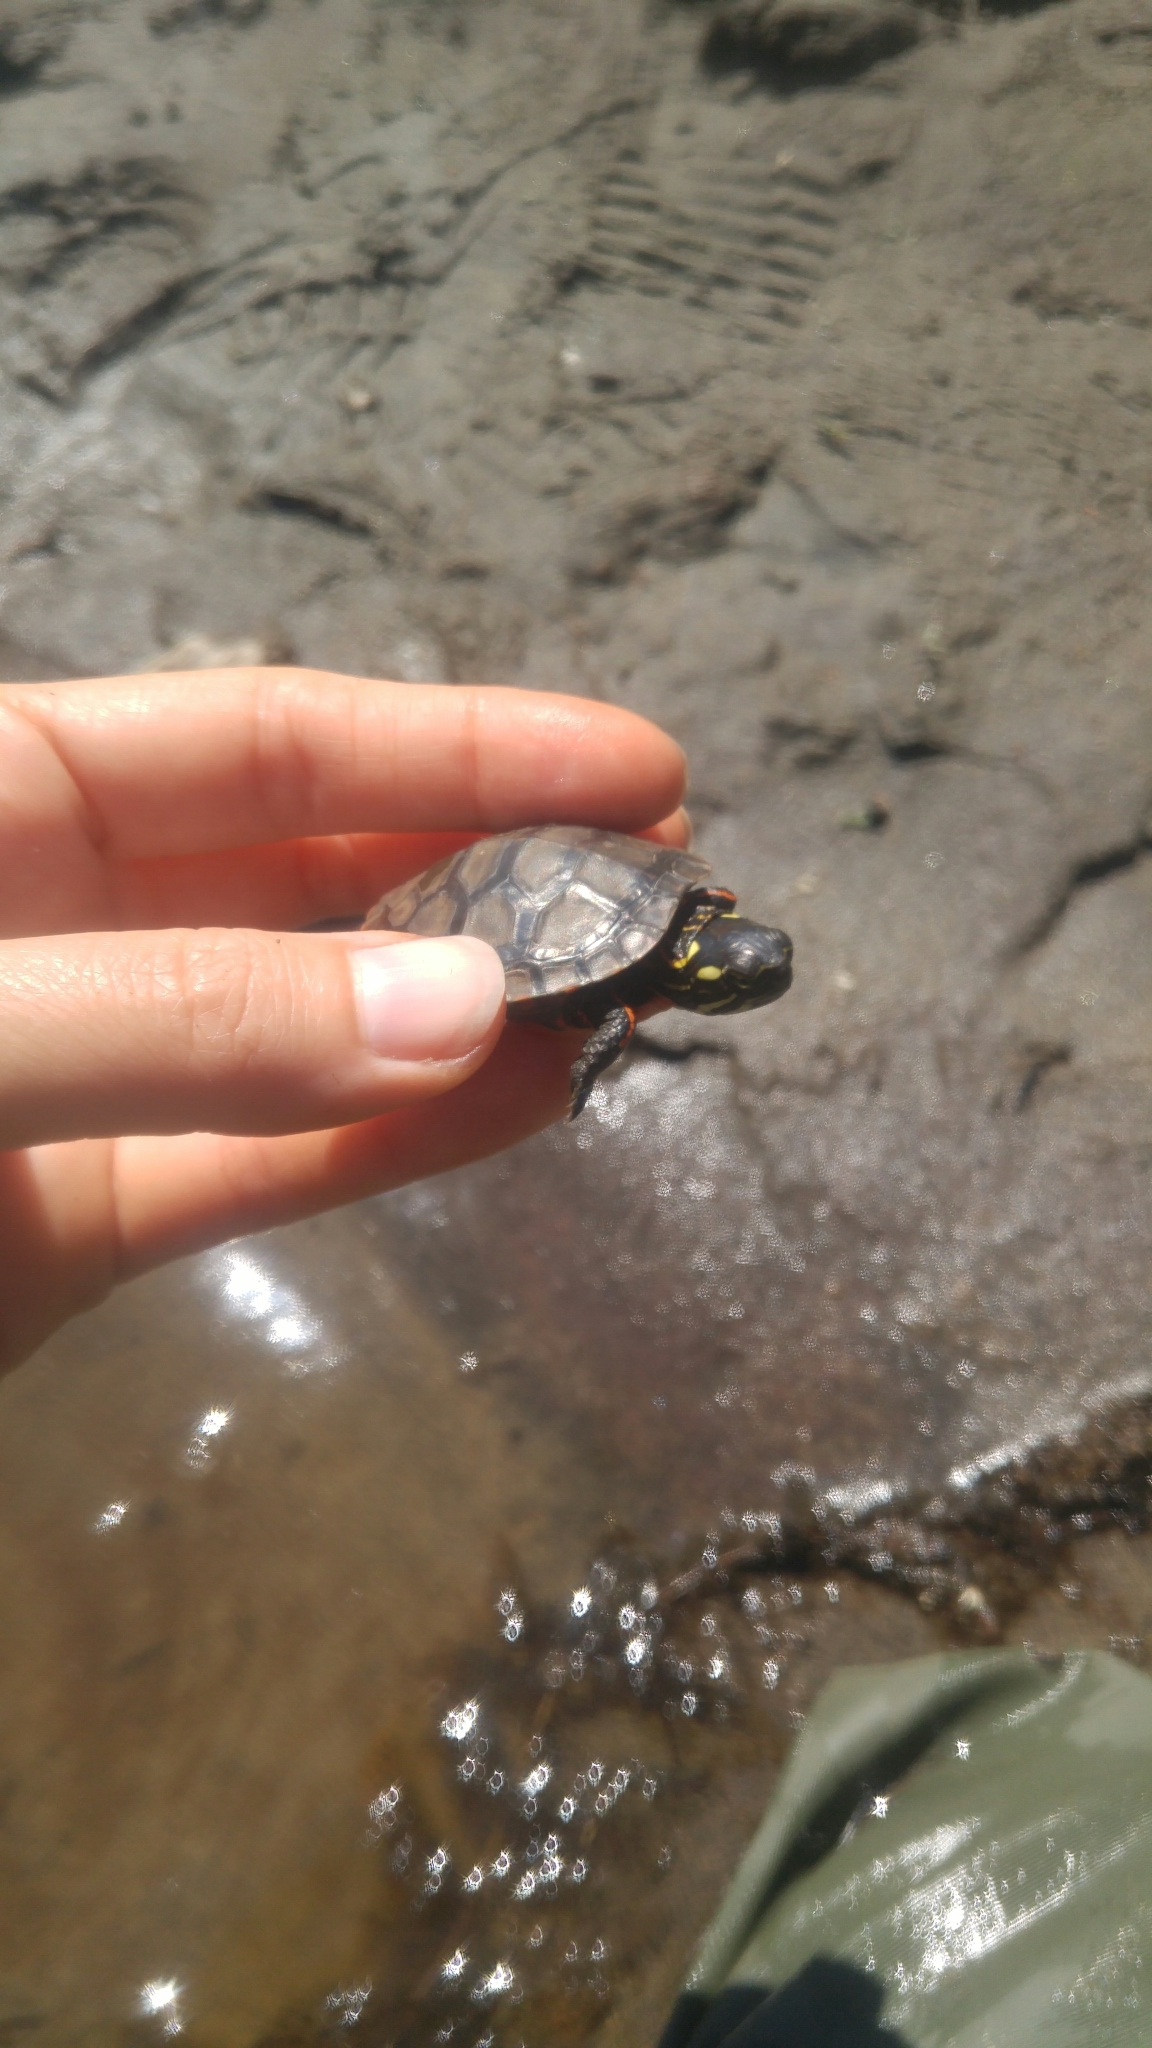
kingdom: Animalia
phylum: Chordata
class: Testudines
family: Emydidae
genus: Chrysemys
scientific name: Chrysemys picta
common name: Painted turtle
